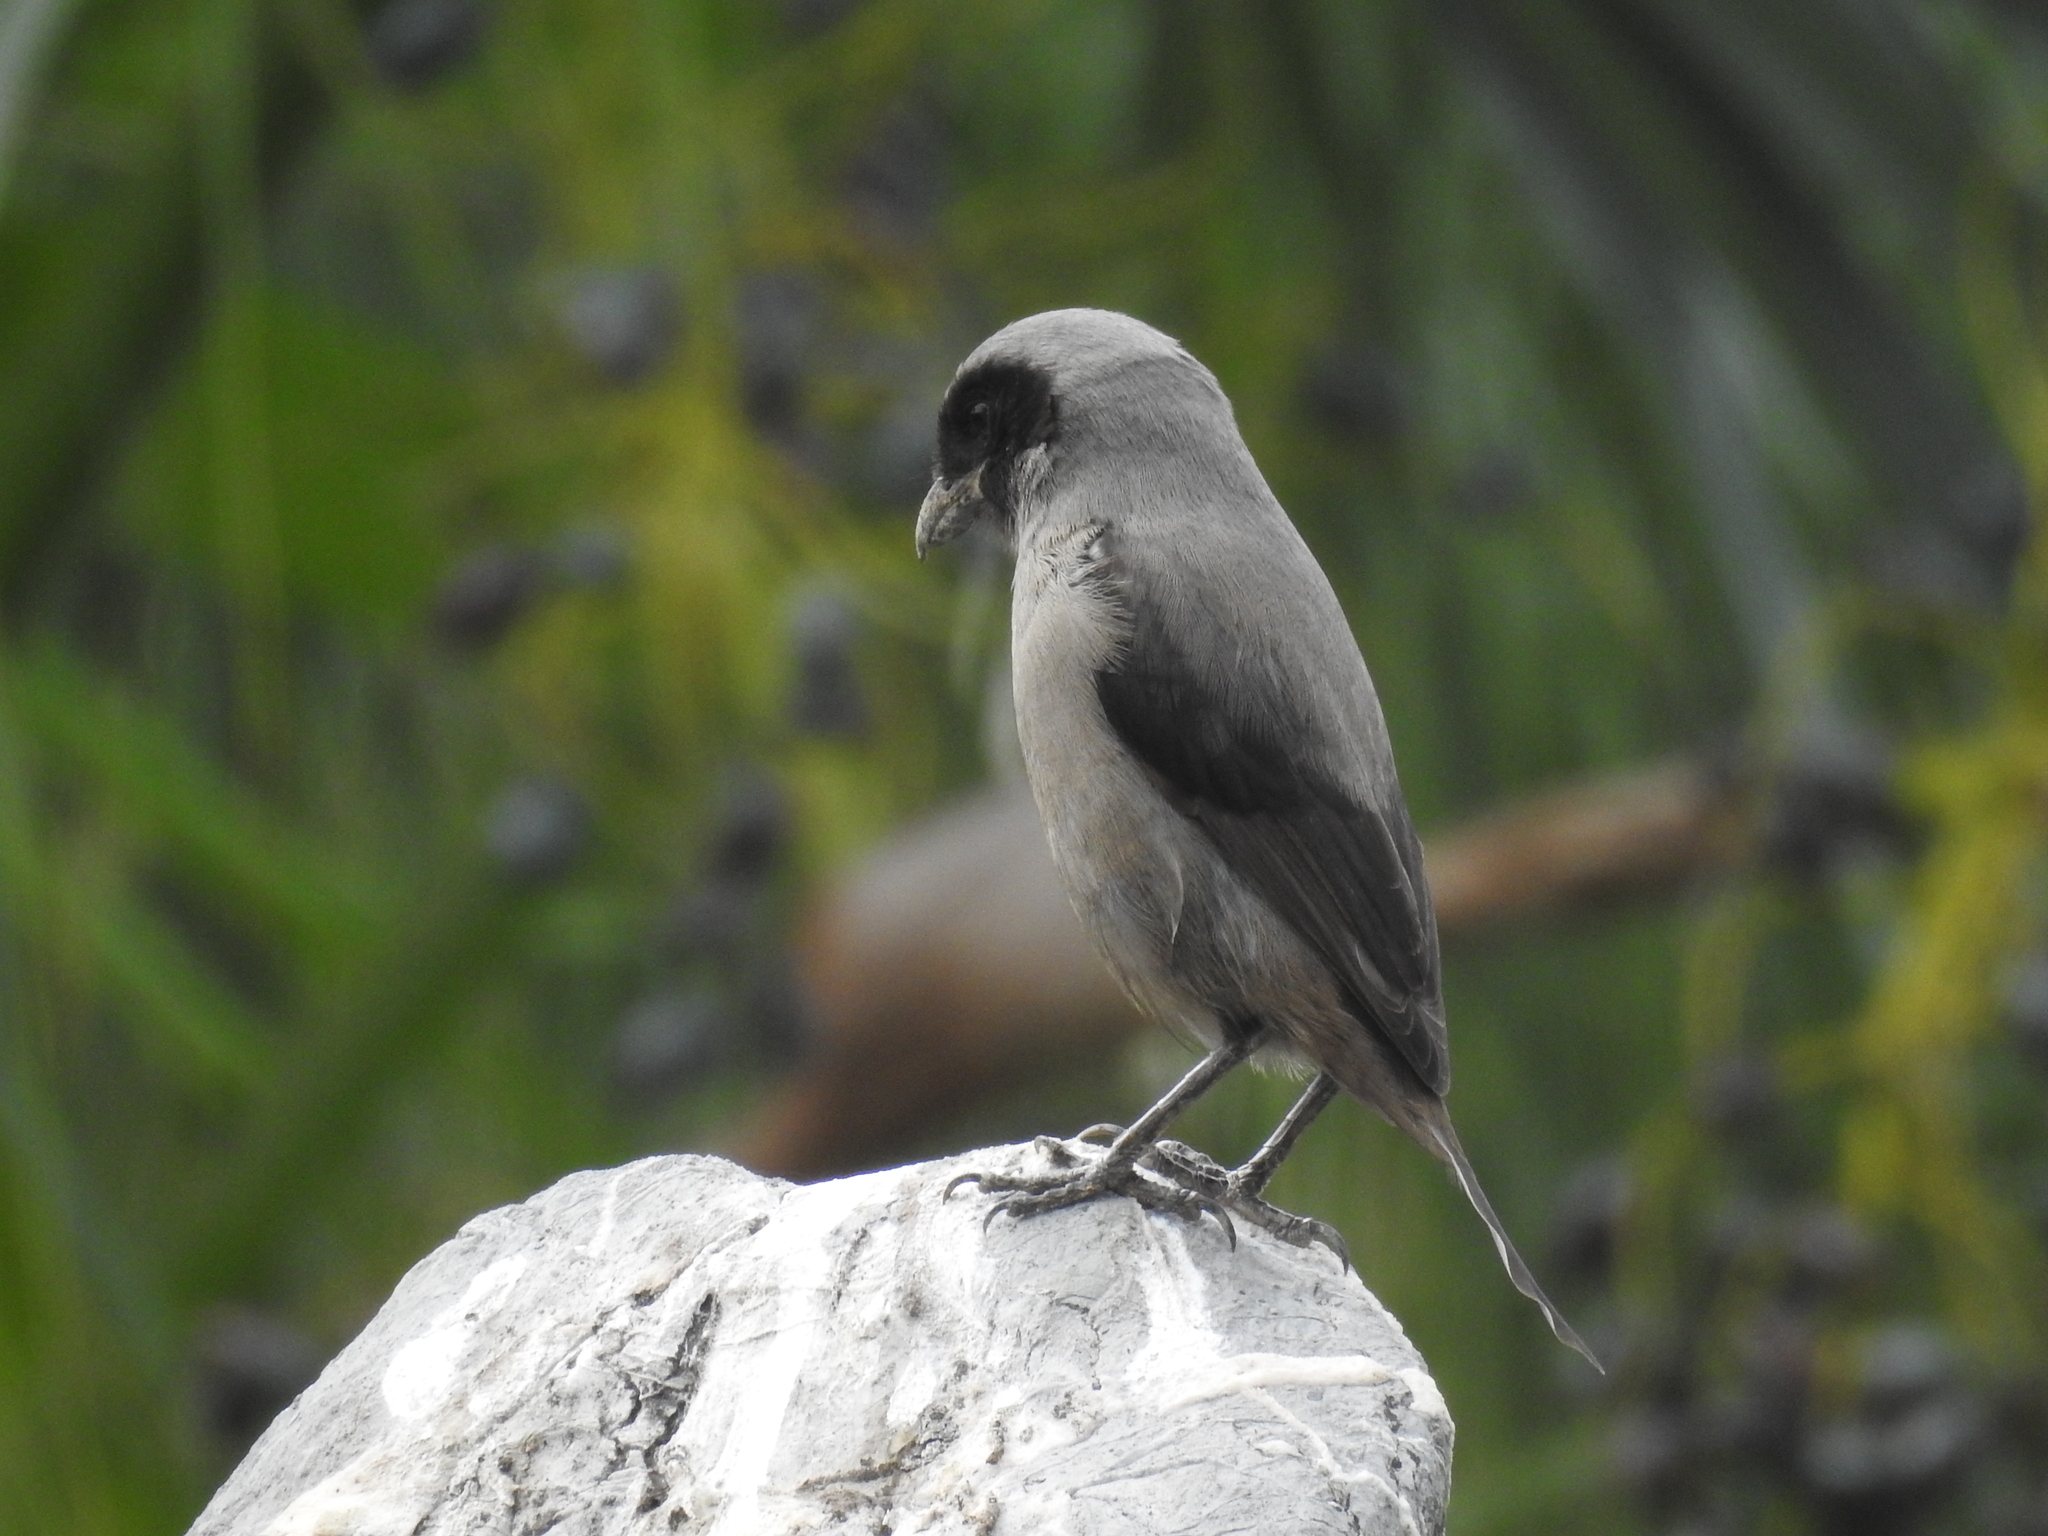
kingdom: Animalia
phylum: Chordata
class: Aves
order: Passeriformes
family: Laniidae
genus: Lanius
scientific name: Lanius schach
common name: Long-tailed shrike
